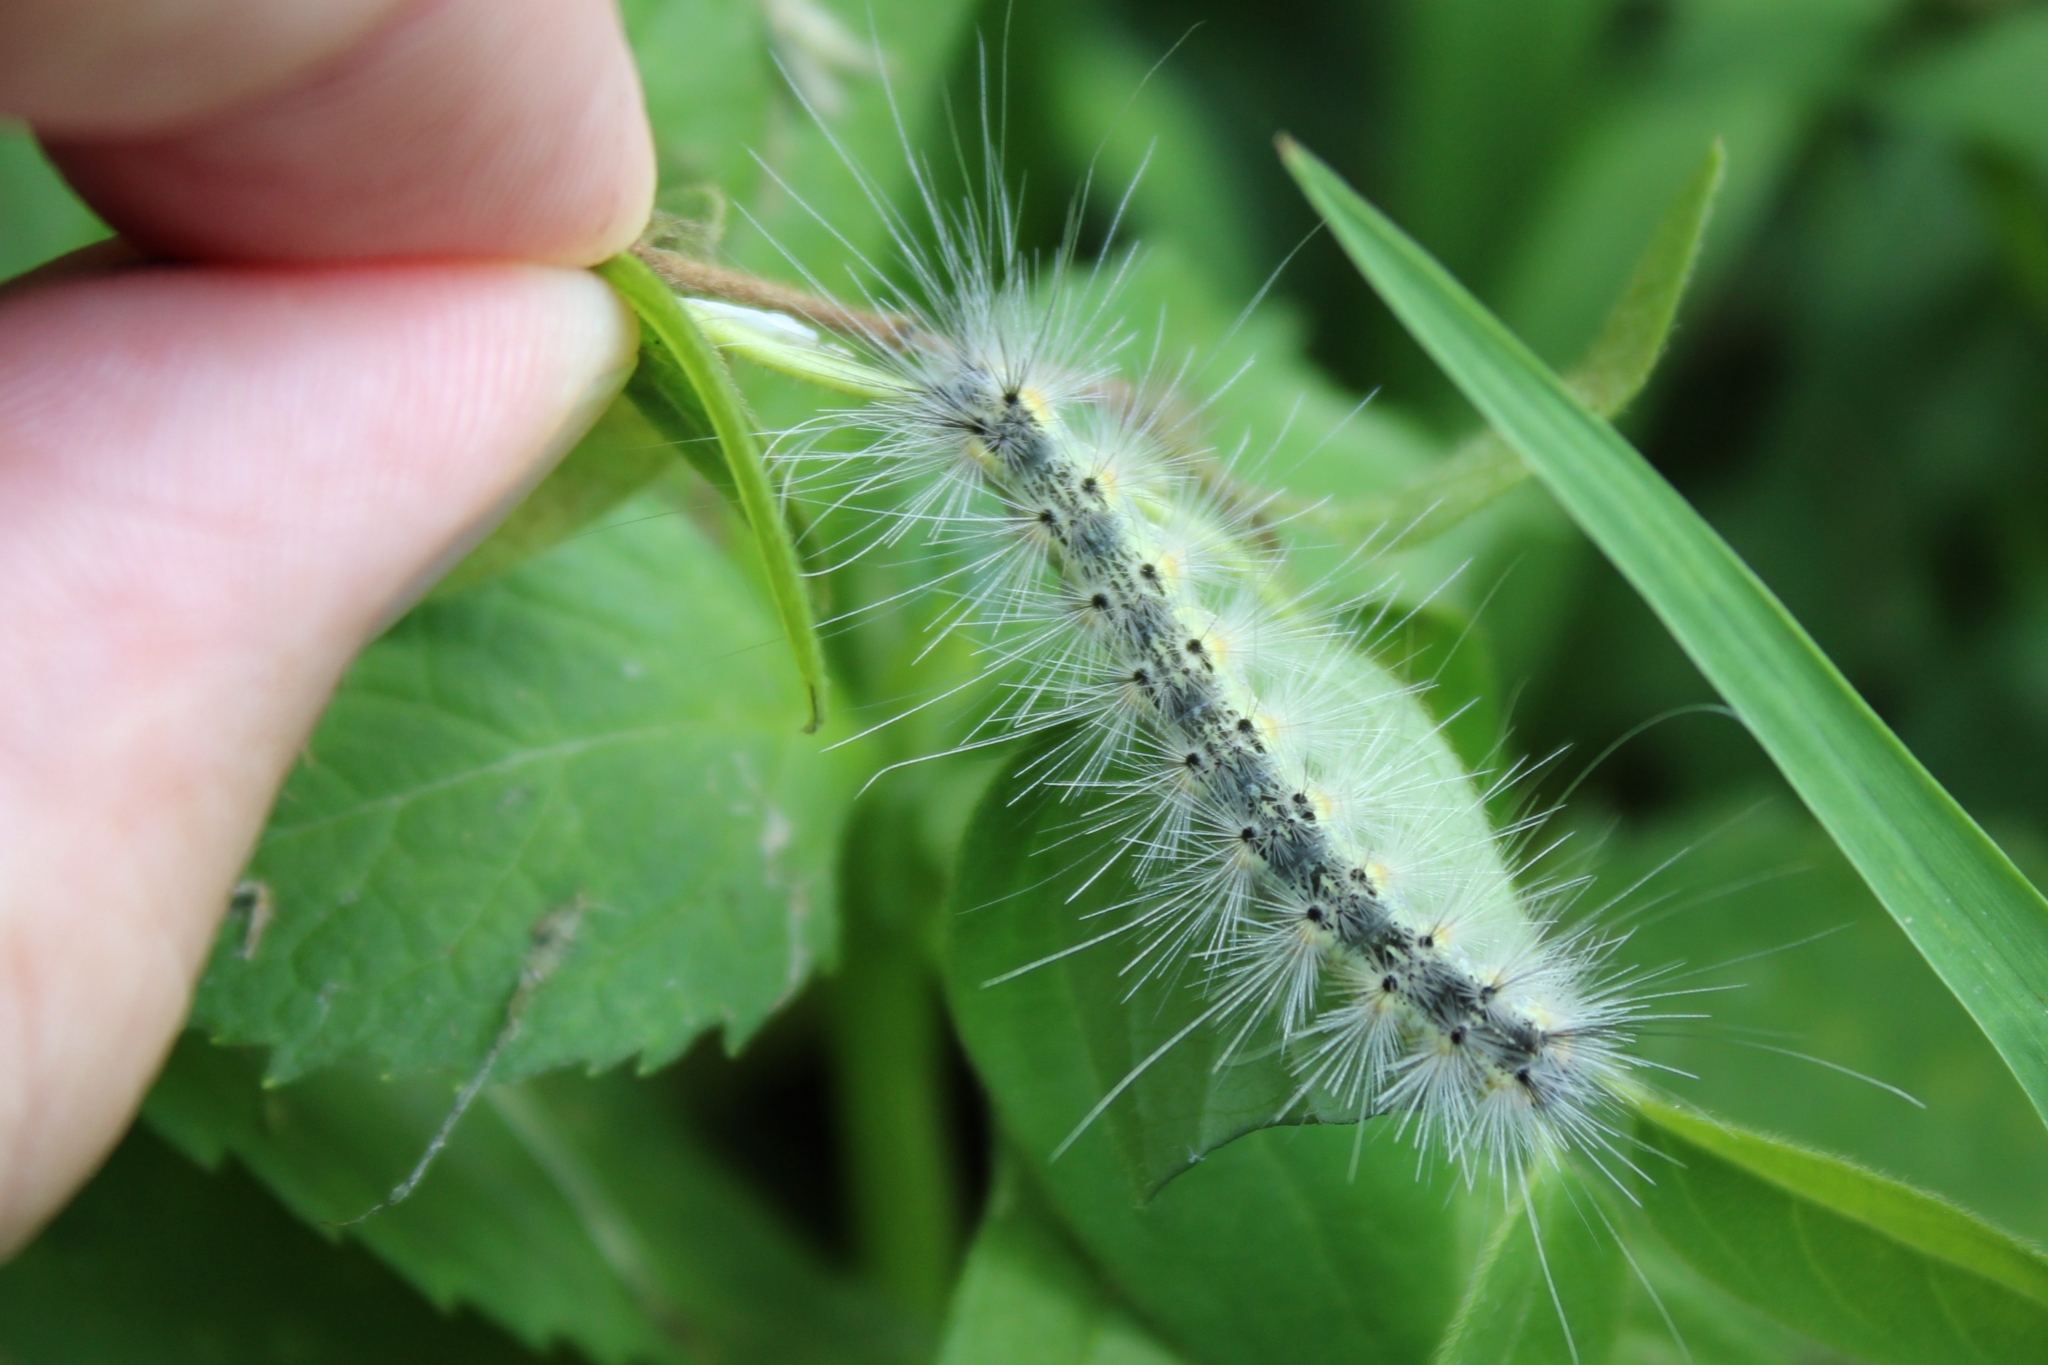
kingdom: Animalia
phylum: Arthropoda
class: Insecta
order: Lepidoptera
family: Erebidae
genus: Hyphantria
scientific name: Hyphantria cunea
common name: American white moth
